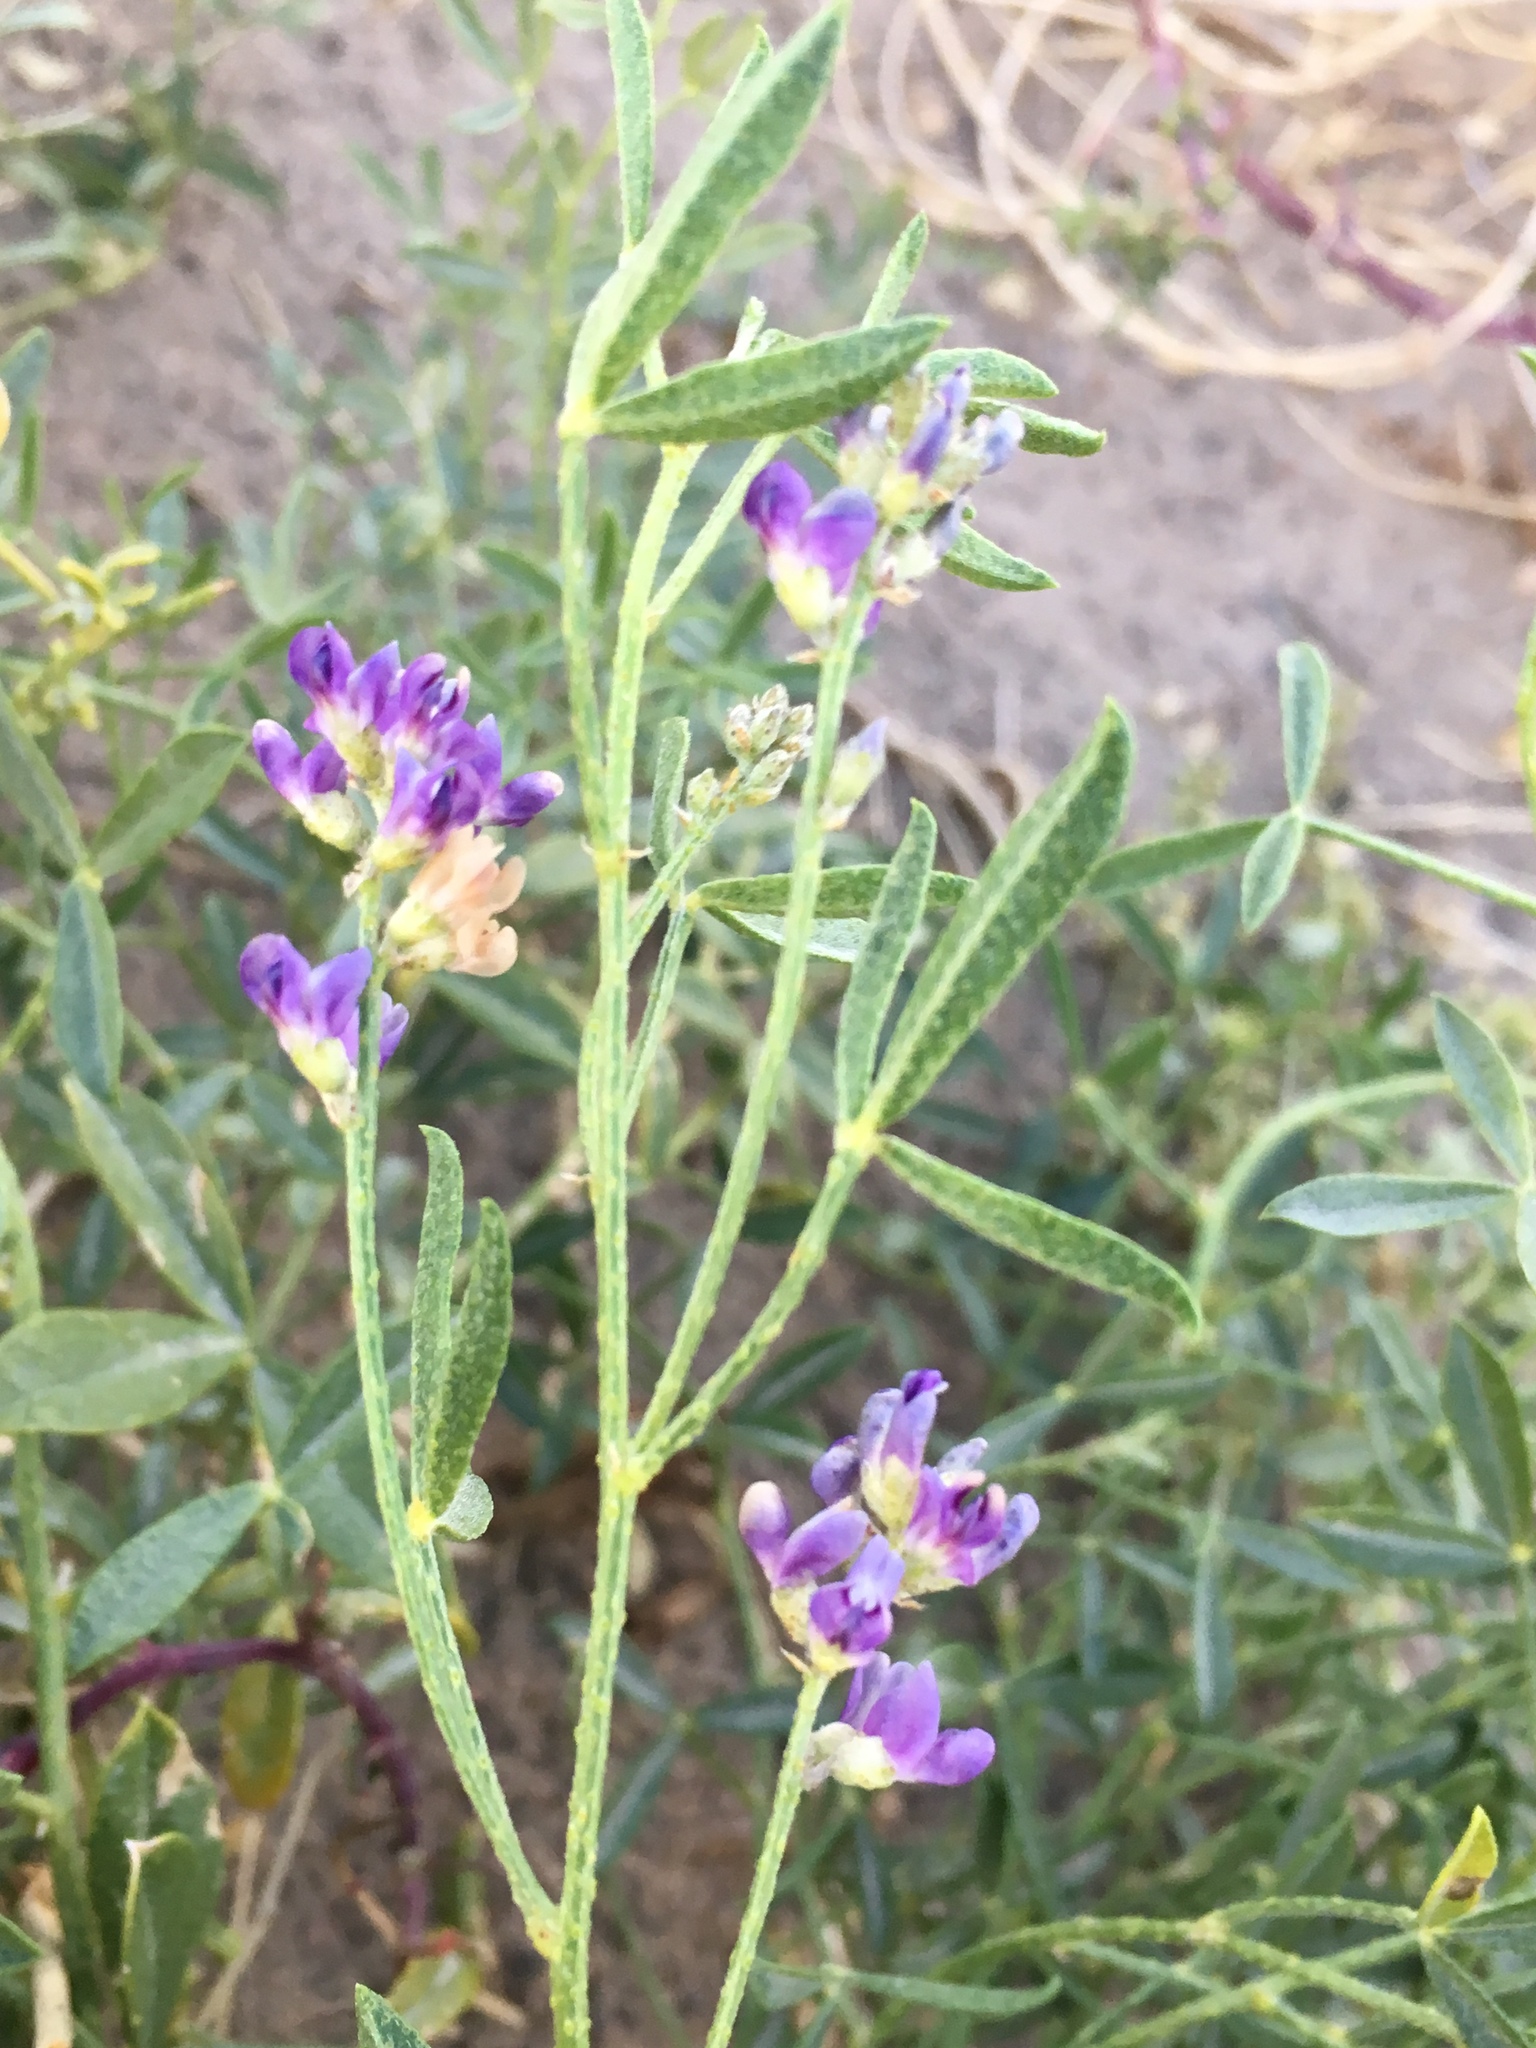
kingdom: Plantae
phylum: Tracheophyta
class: Magnoliopsida
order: Fabales
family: Fabaceae
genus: Ladeania
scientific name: Ladeania lanceolata
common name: Dune scurf-pea
